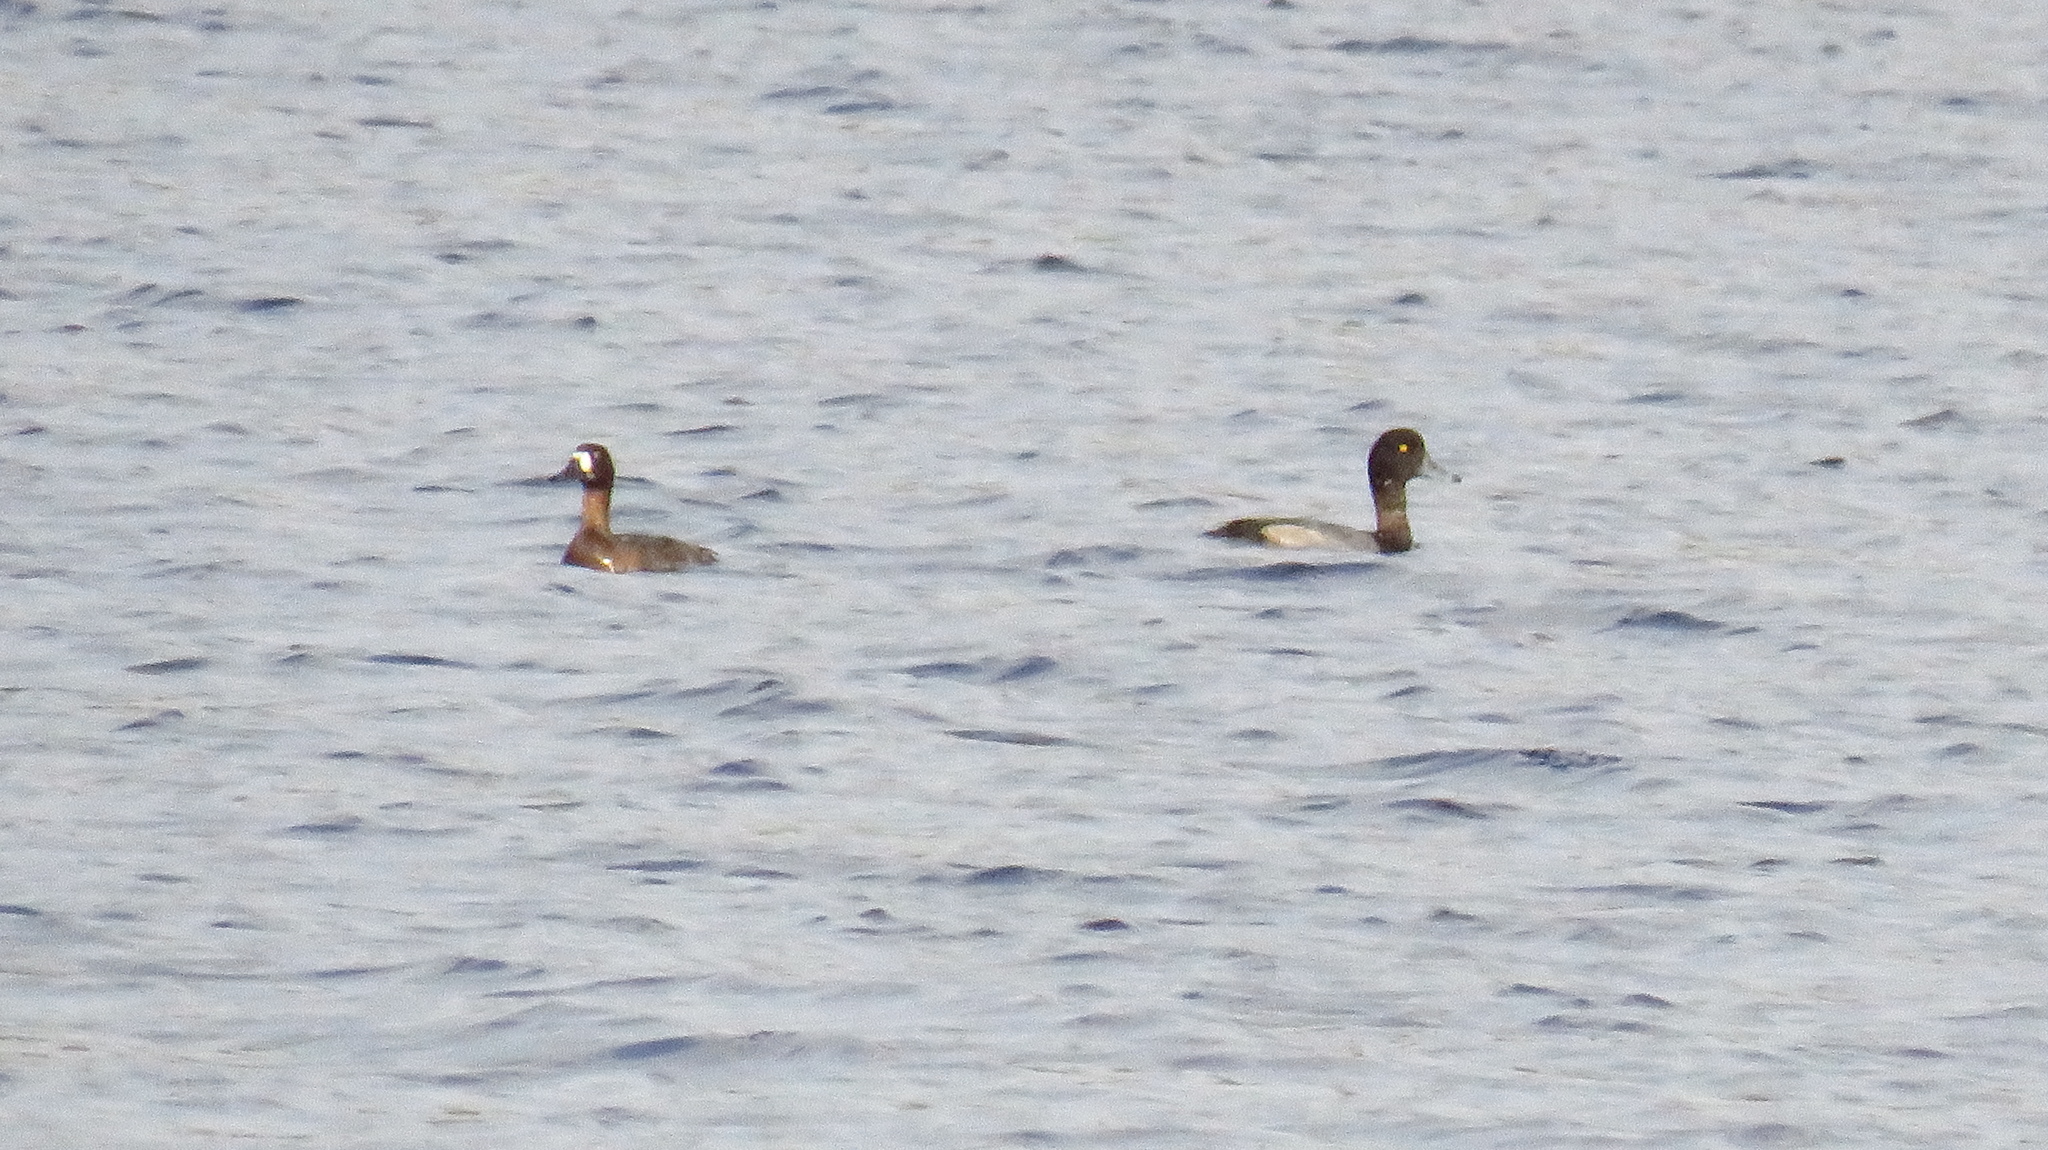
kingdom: Animalia
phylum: Chordata
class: Aves
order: Anseriformes
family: Anatidae
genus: Aythya
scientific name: Aythya marila
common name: Greater scaup
